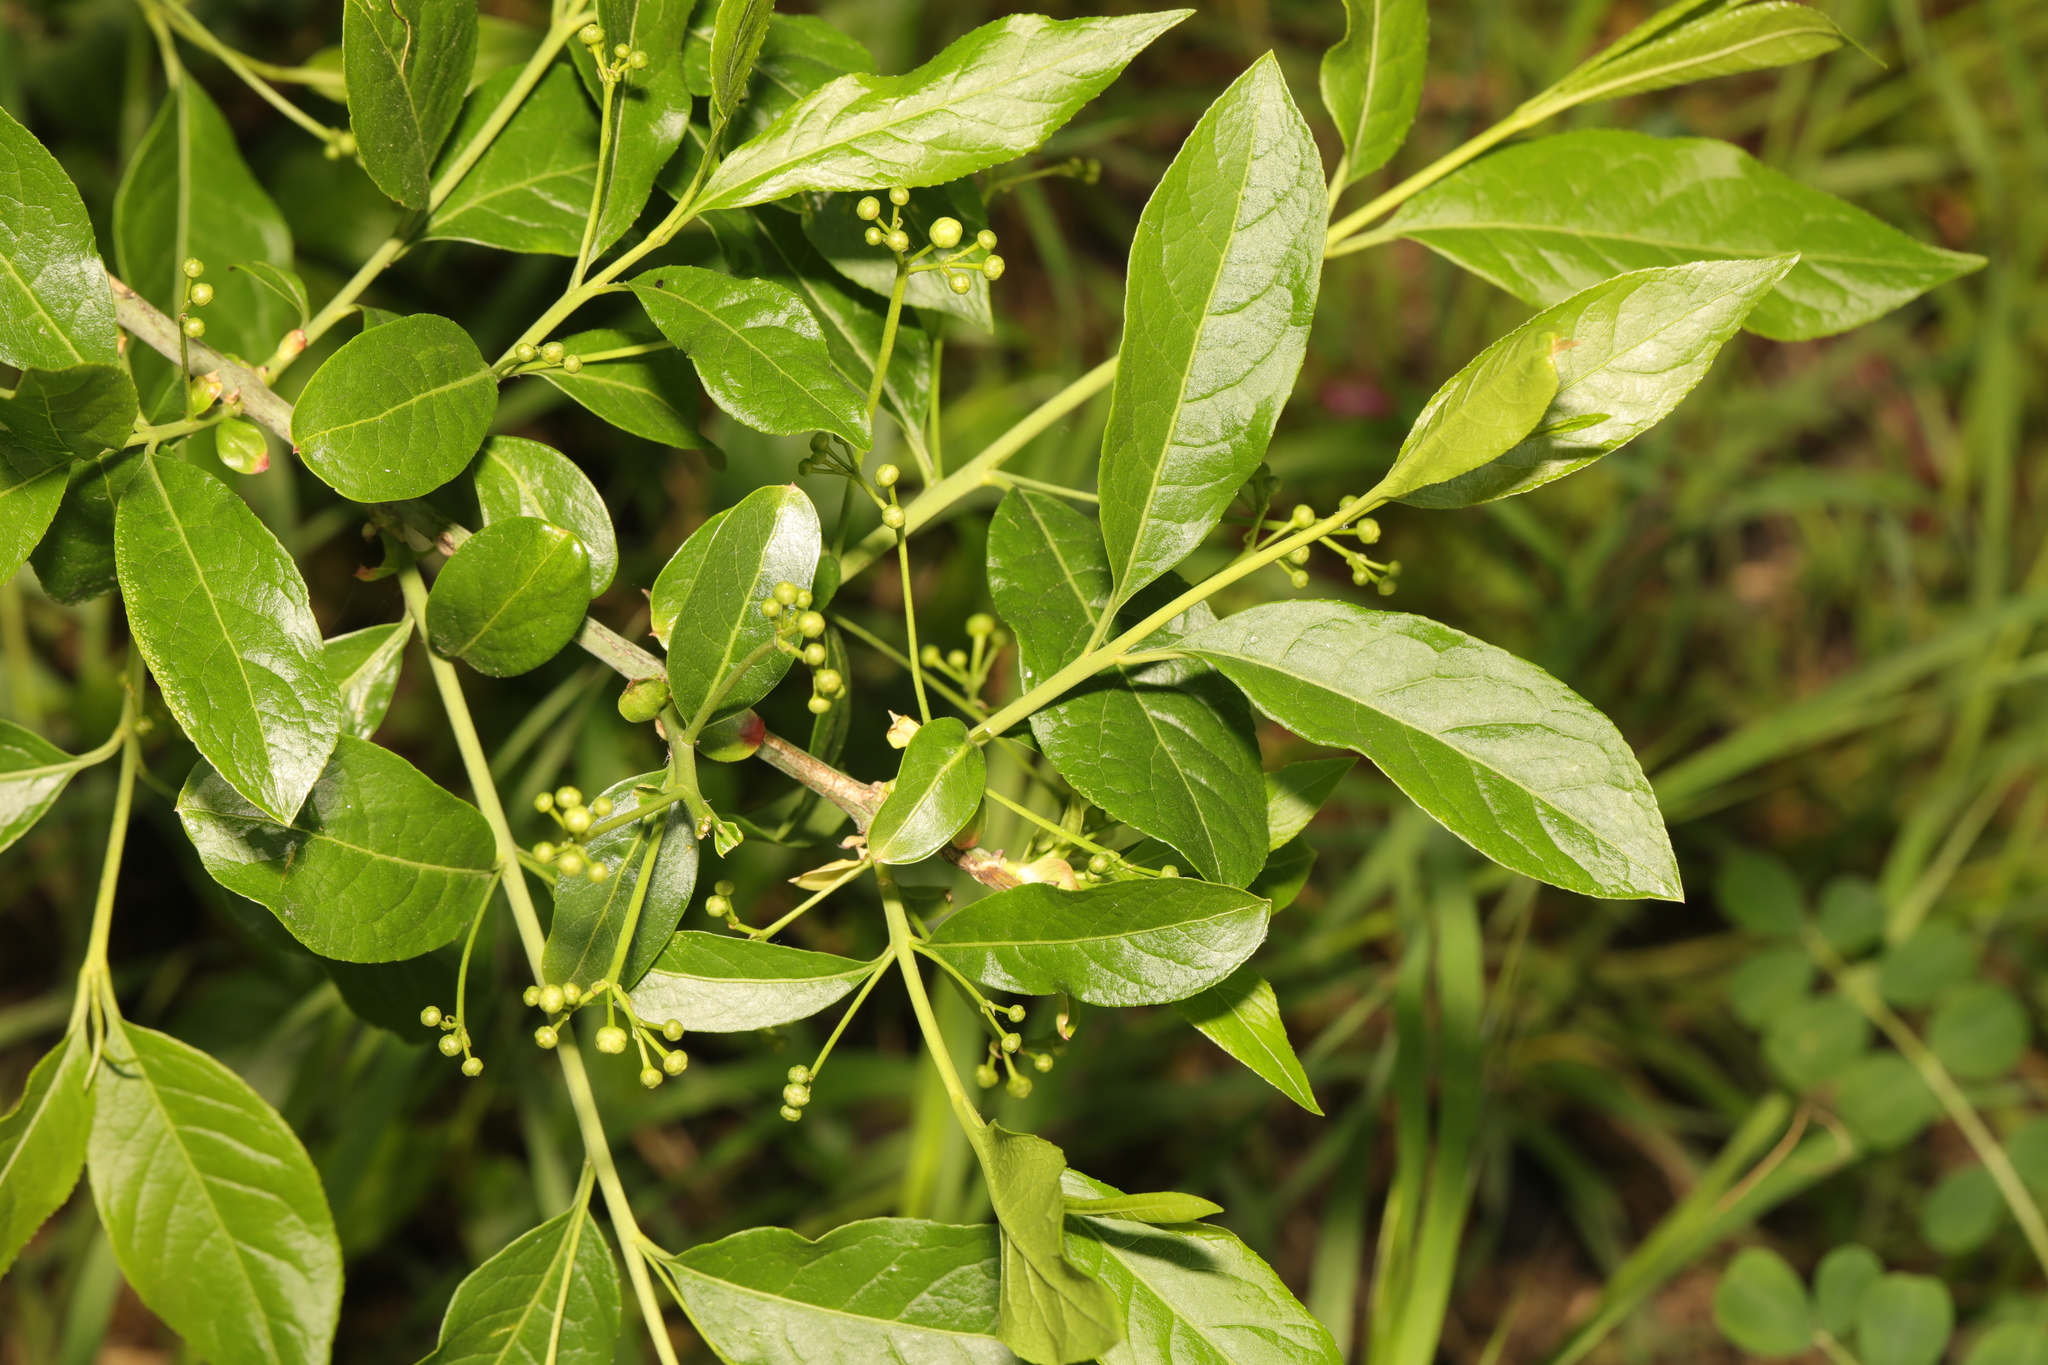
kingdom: Plantae
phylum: Tracheophyta
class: Magnoliopsida
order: Celastrales
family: Celastraceae
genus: Euonymus
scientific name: Euonymus europaeus
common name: Spindle
